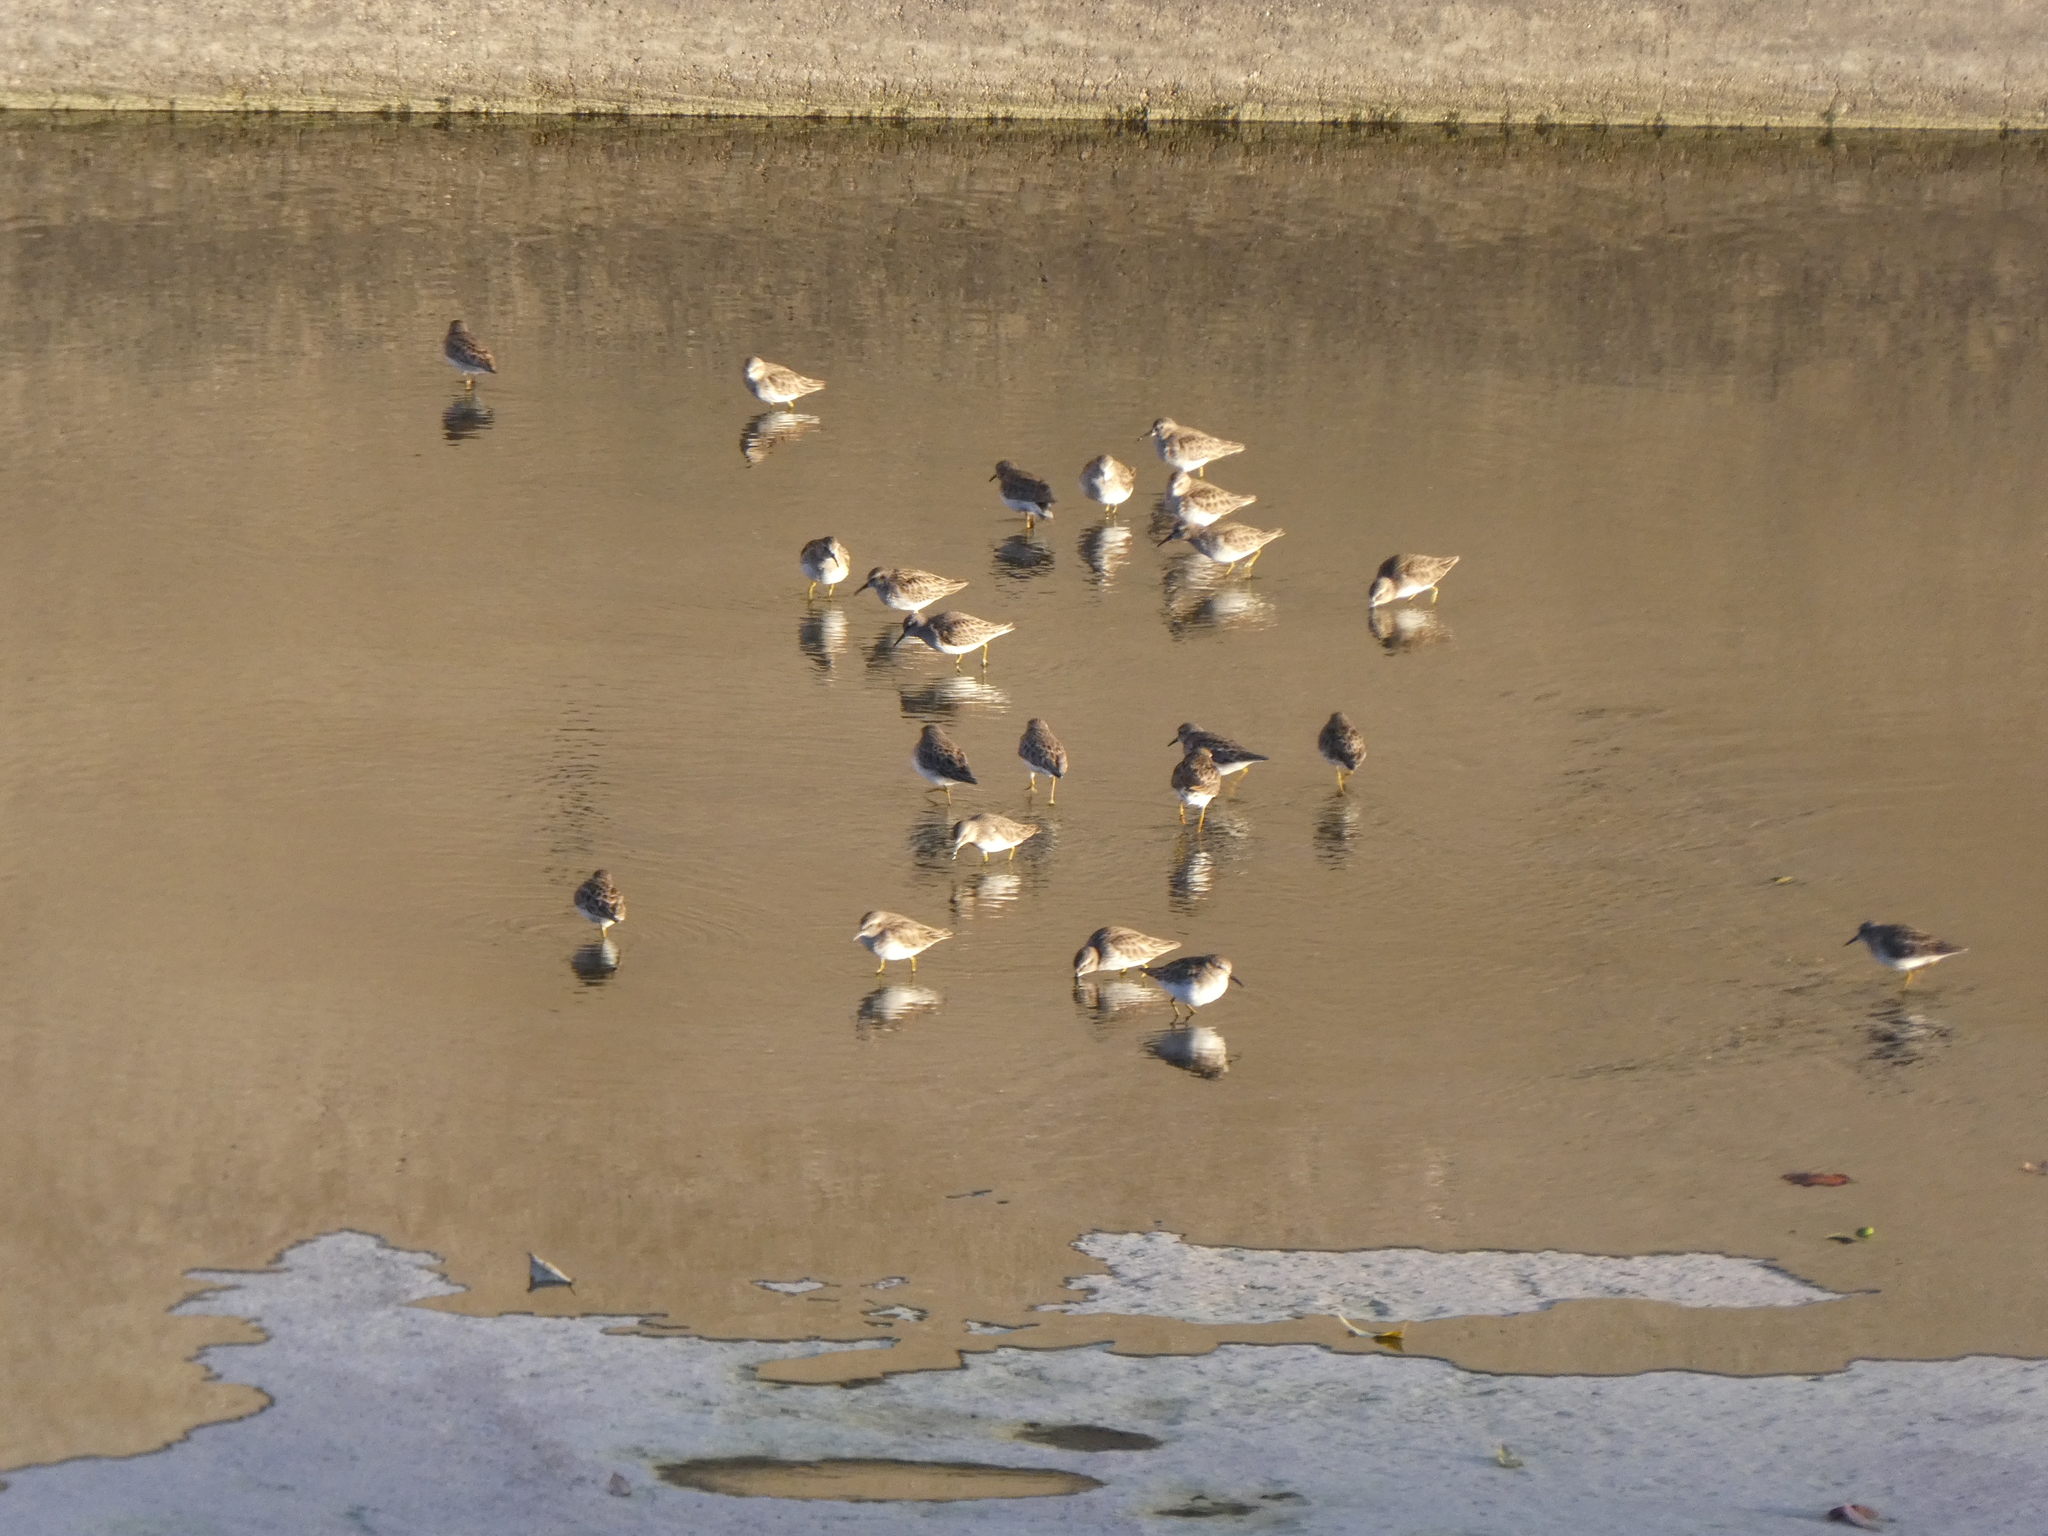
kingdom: Animalia
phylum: Chordata
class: Aves
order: Charadriiformes
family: Scolopacidae
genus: Calidris
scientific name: Calidris minutilla
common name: Least sandpiper
